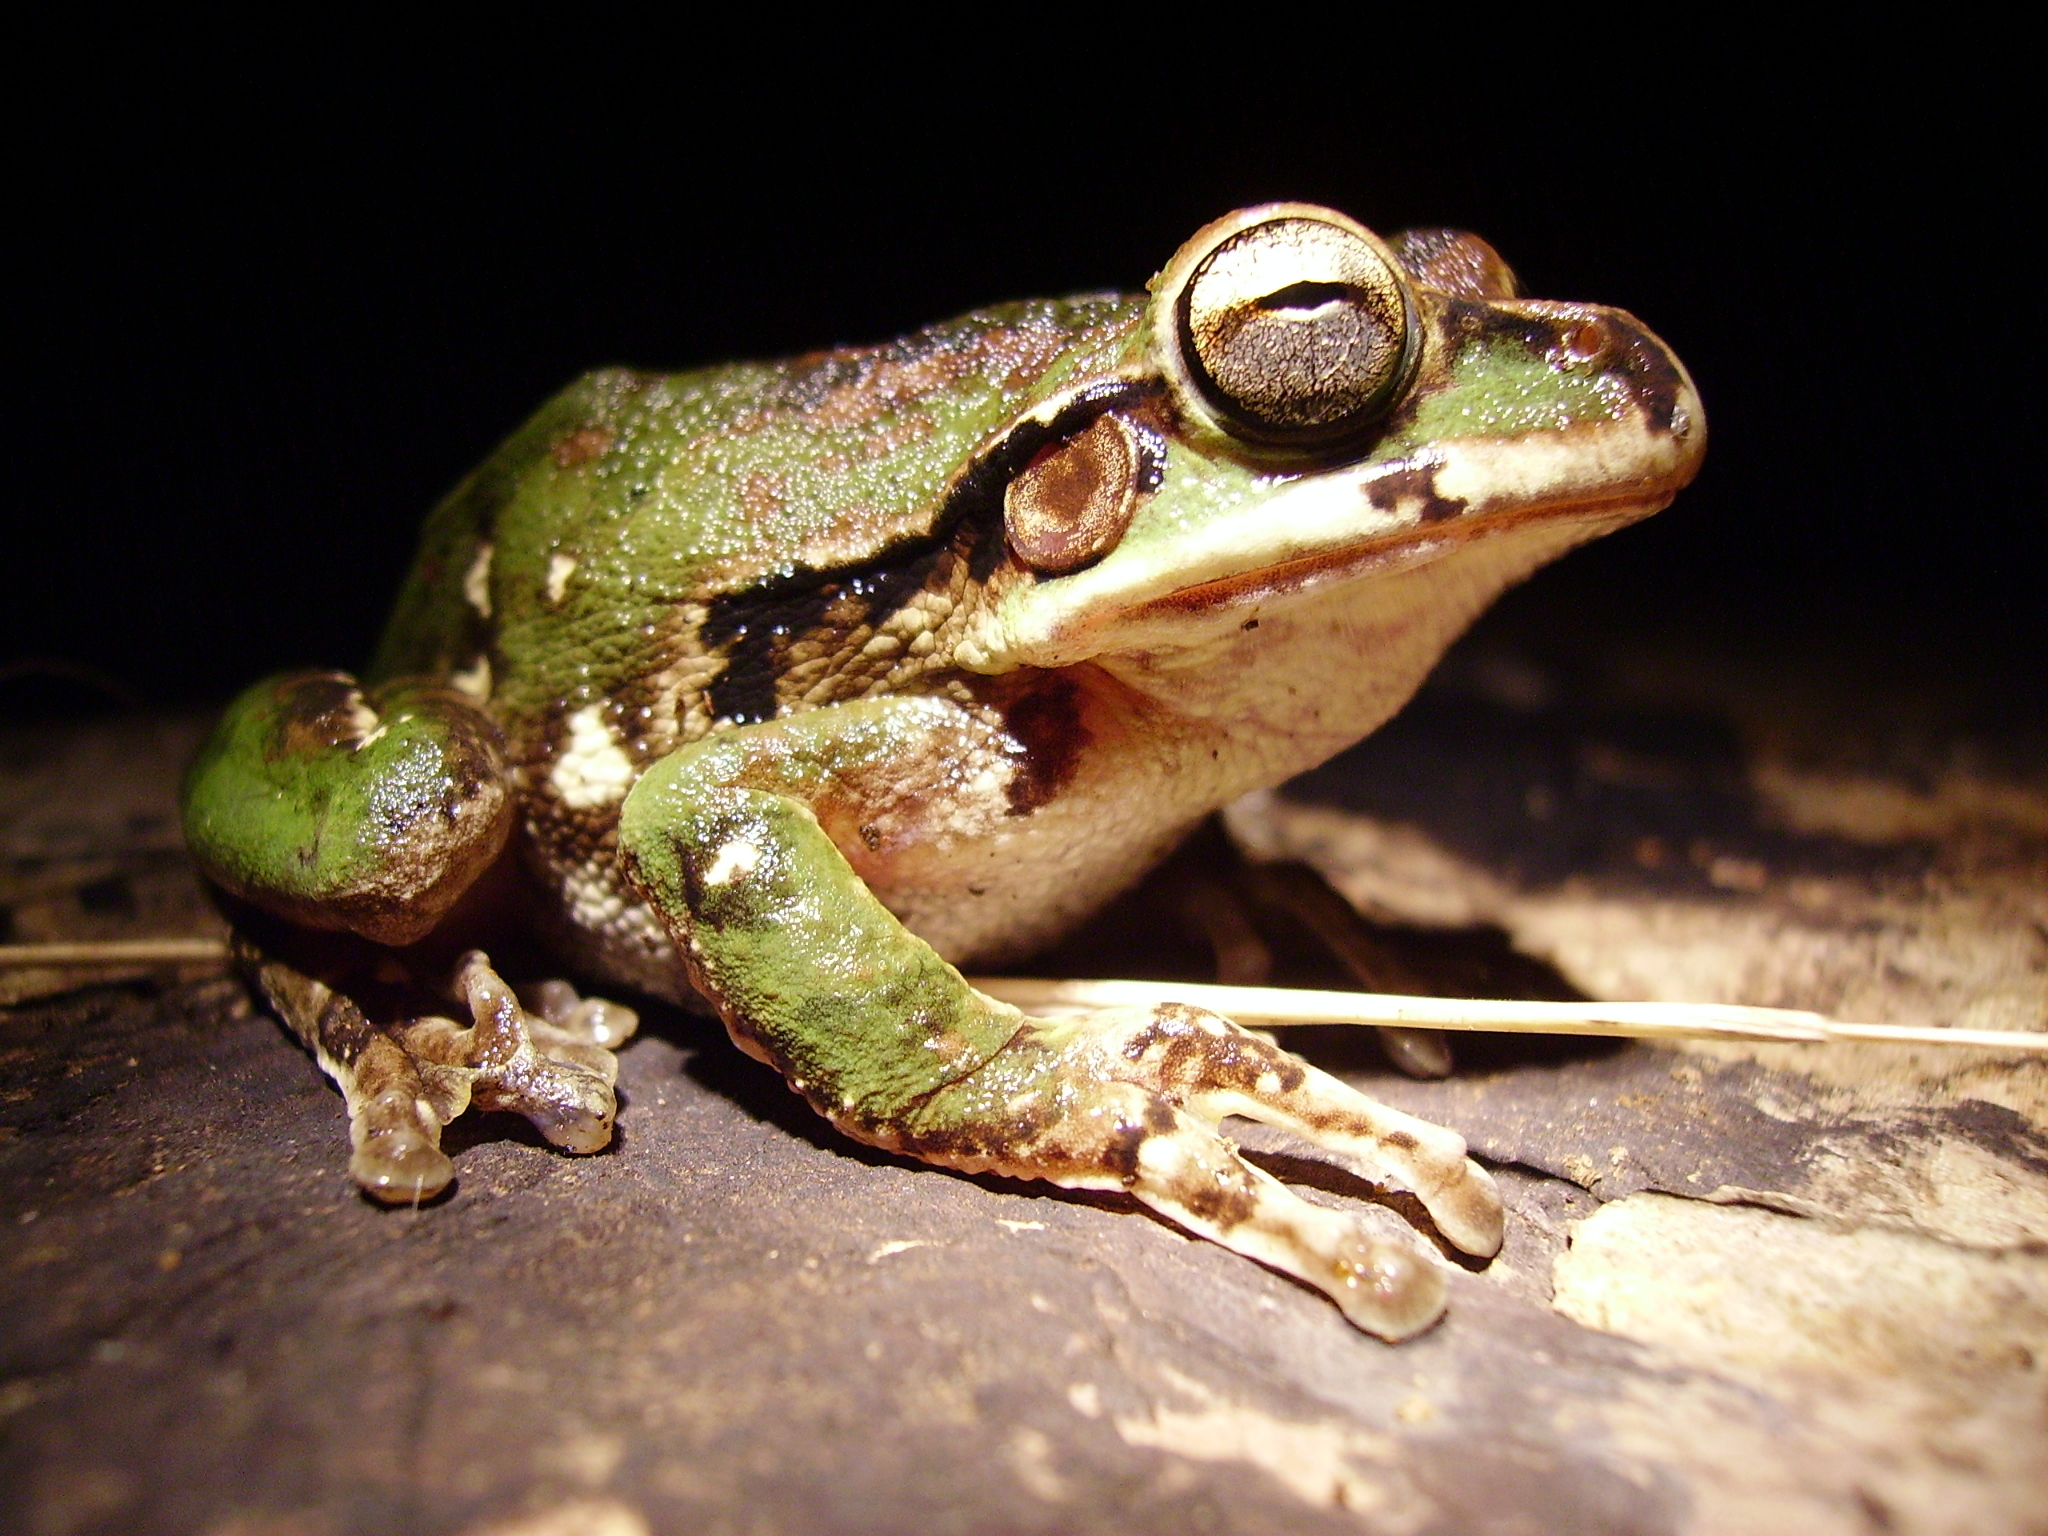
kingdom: Animalia
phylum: Chordata
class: Amphibia
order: Anura
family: Hylidae
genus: Smilisca
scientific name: Smilisca baudinii
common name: Mexican smilisca
